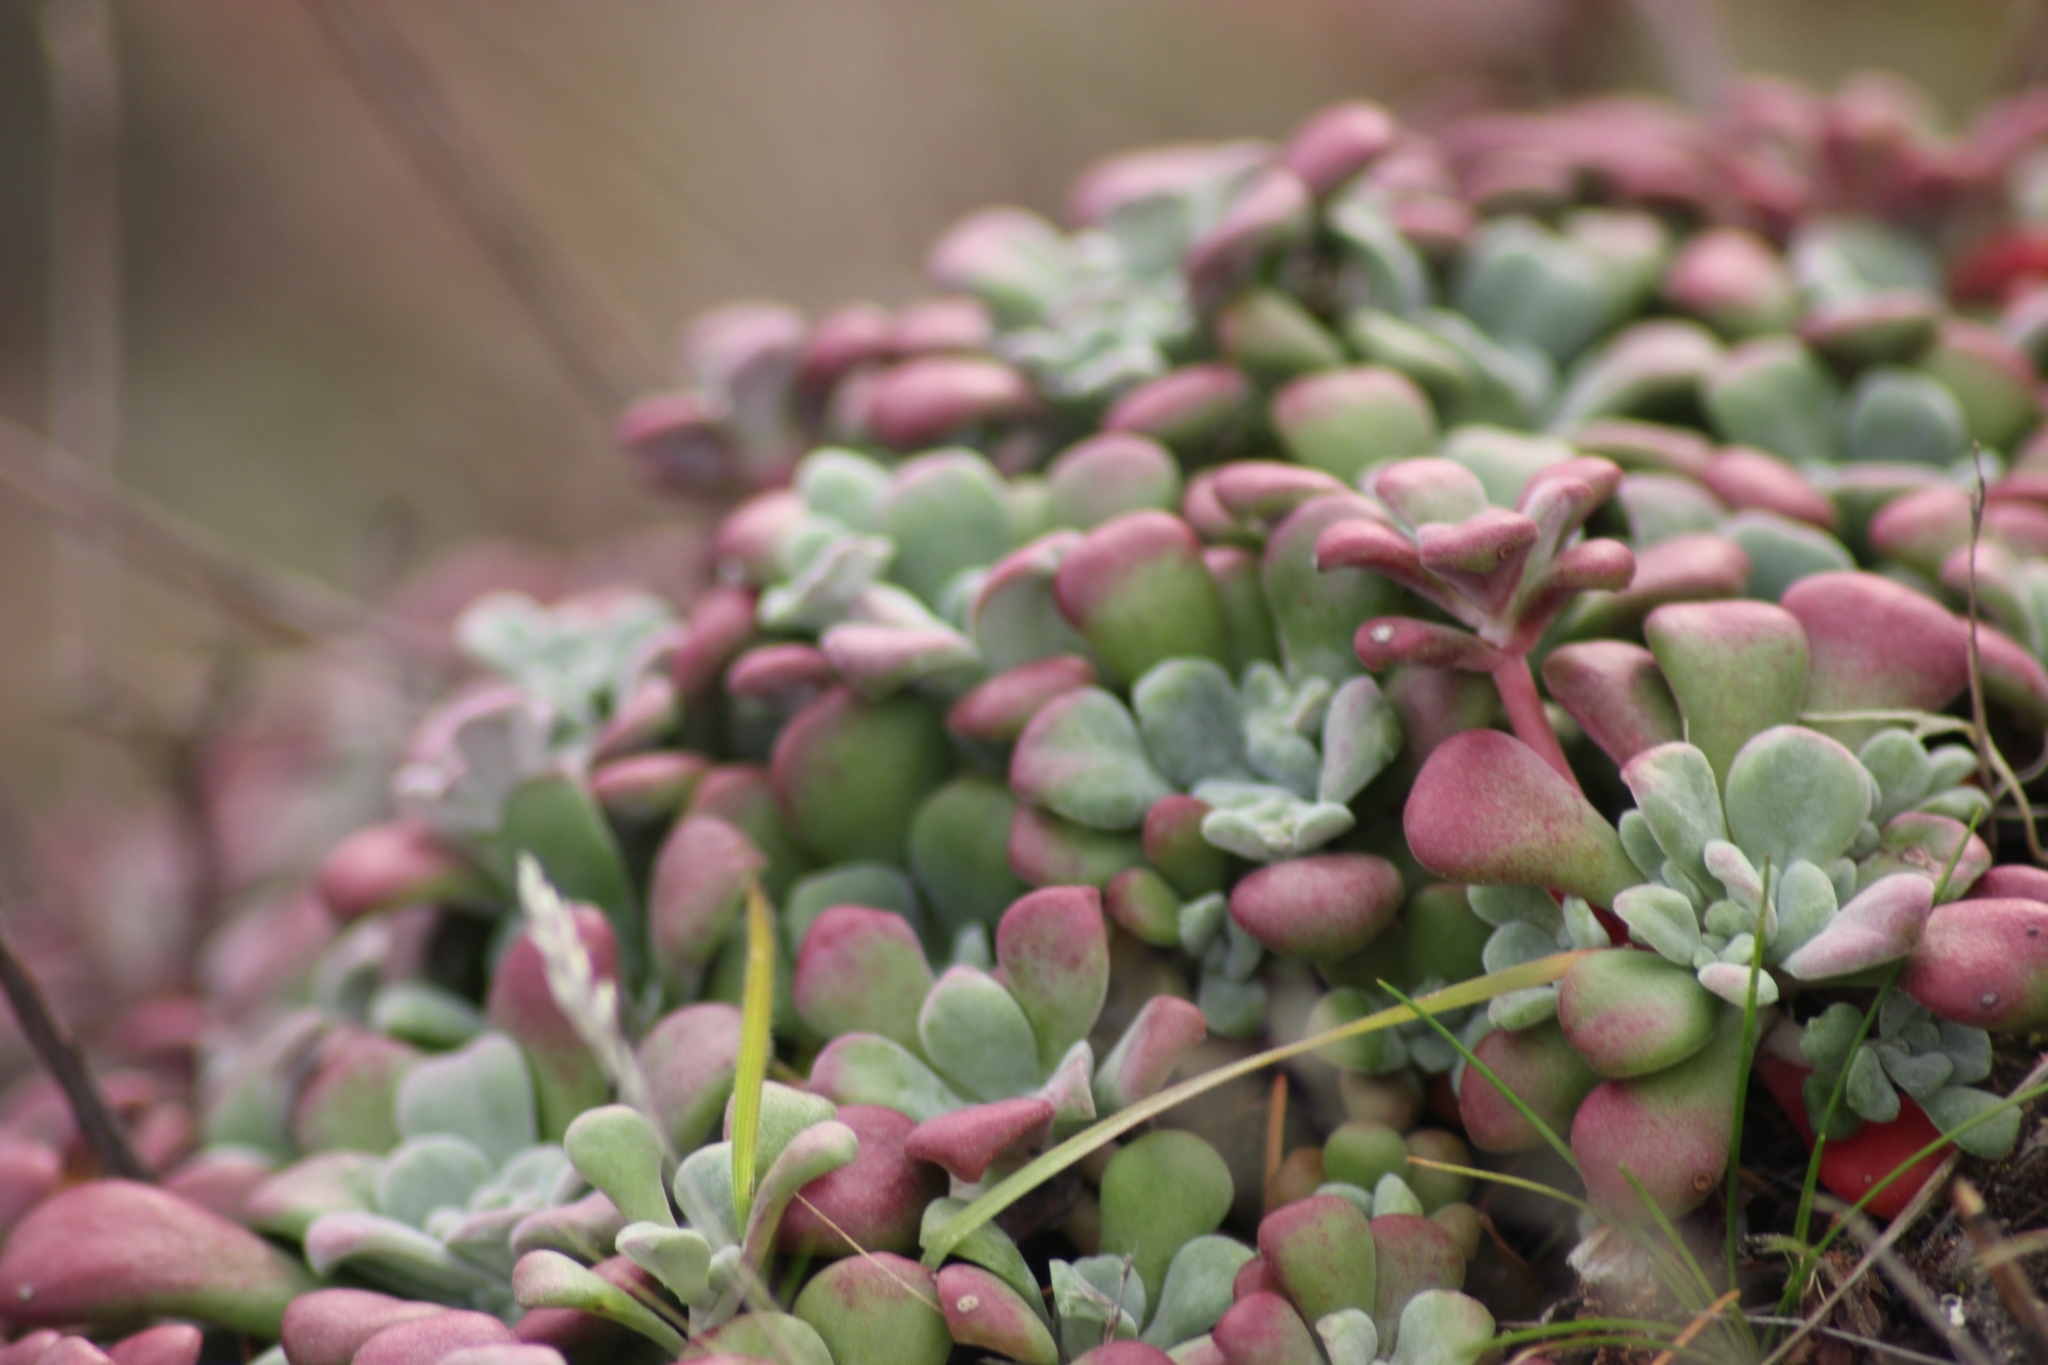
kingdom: Plantae
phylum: Tracheophyta
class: Magnoliopsida
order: Saxifragales
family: Crassulaceae
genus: Sedum
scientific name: Sedum spathulifolium
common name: Colorado stonecrop
